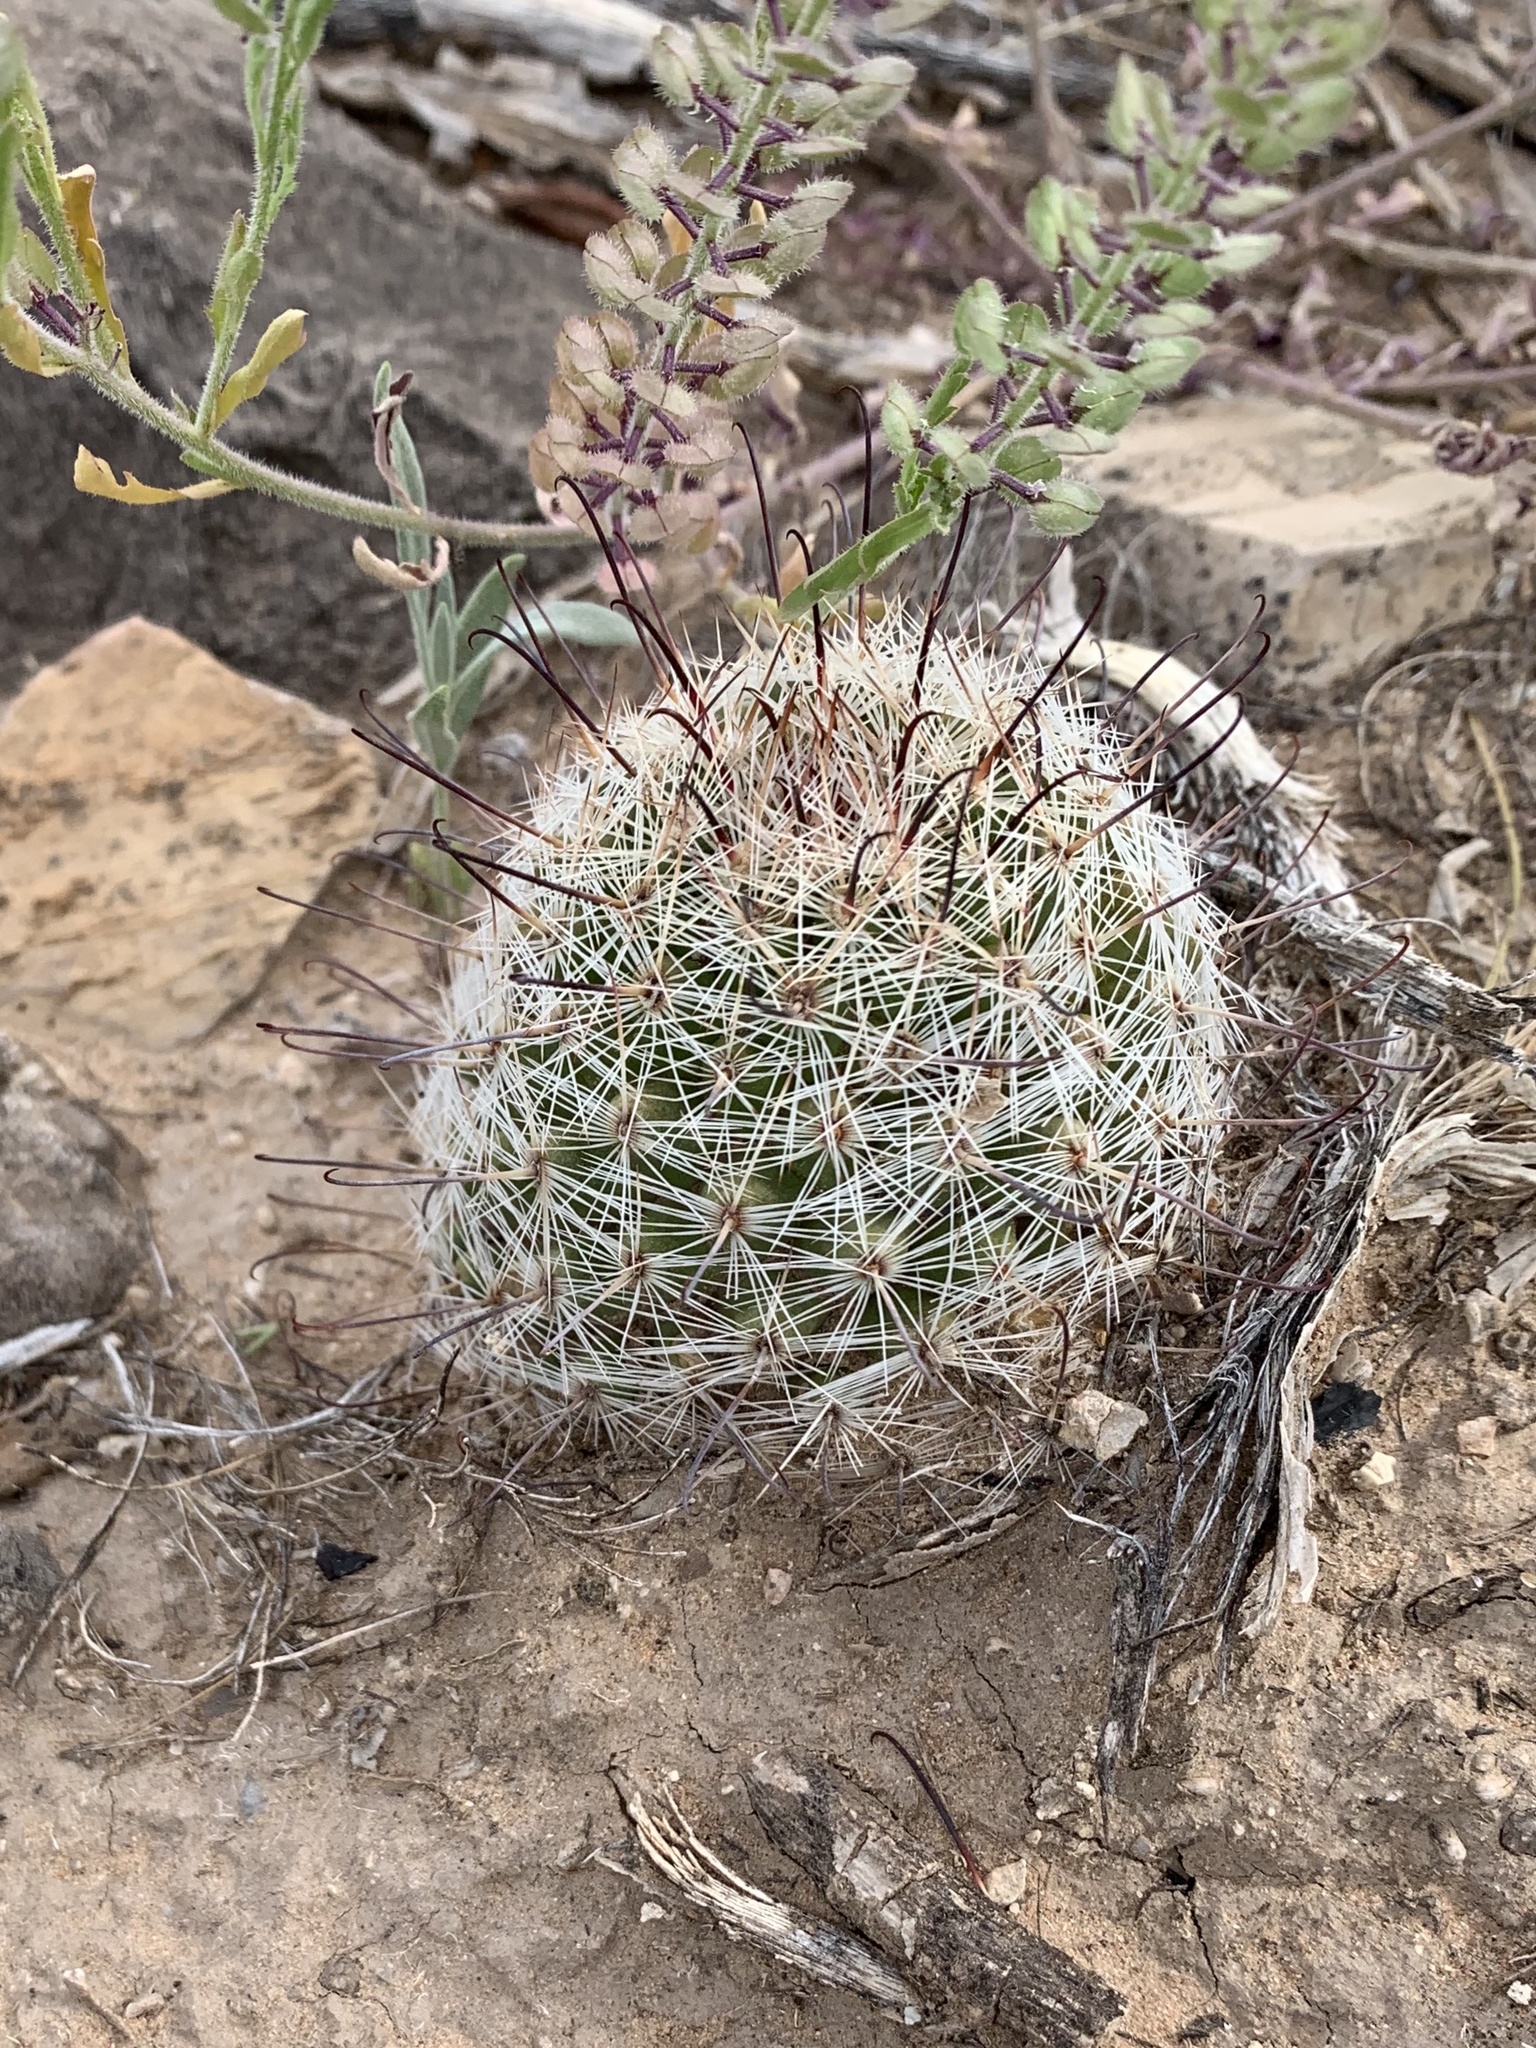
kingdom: Plantae
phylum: Tracheophyta
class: Magnoliopsida
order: Caryophyllales
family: Cactaceae
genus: Cochemiea
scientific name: Cochemiea grahamii
